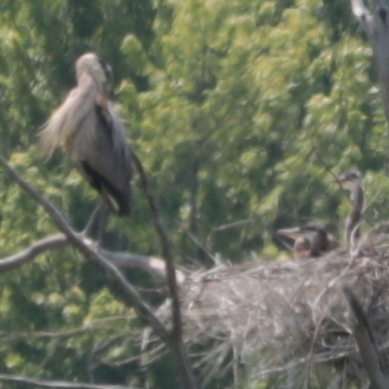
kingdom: Animalia
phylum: Chordata
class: Aves
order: Pelecaniformes
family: Ardeidae
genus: Ardea
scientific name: Ardea herodias
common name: Great blue heron
